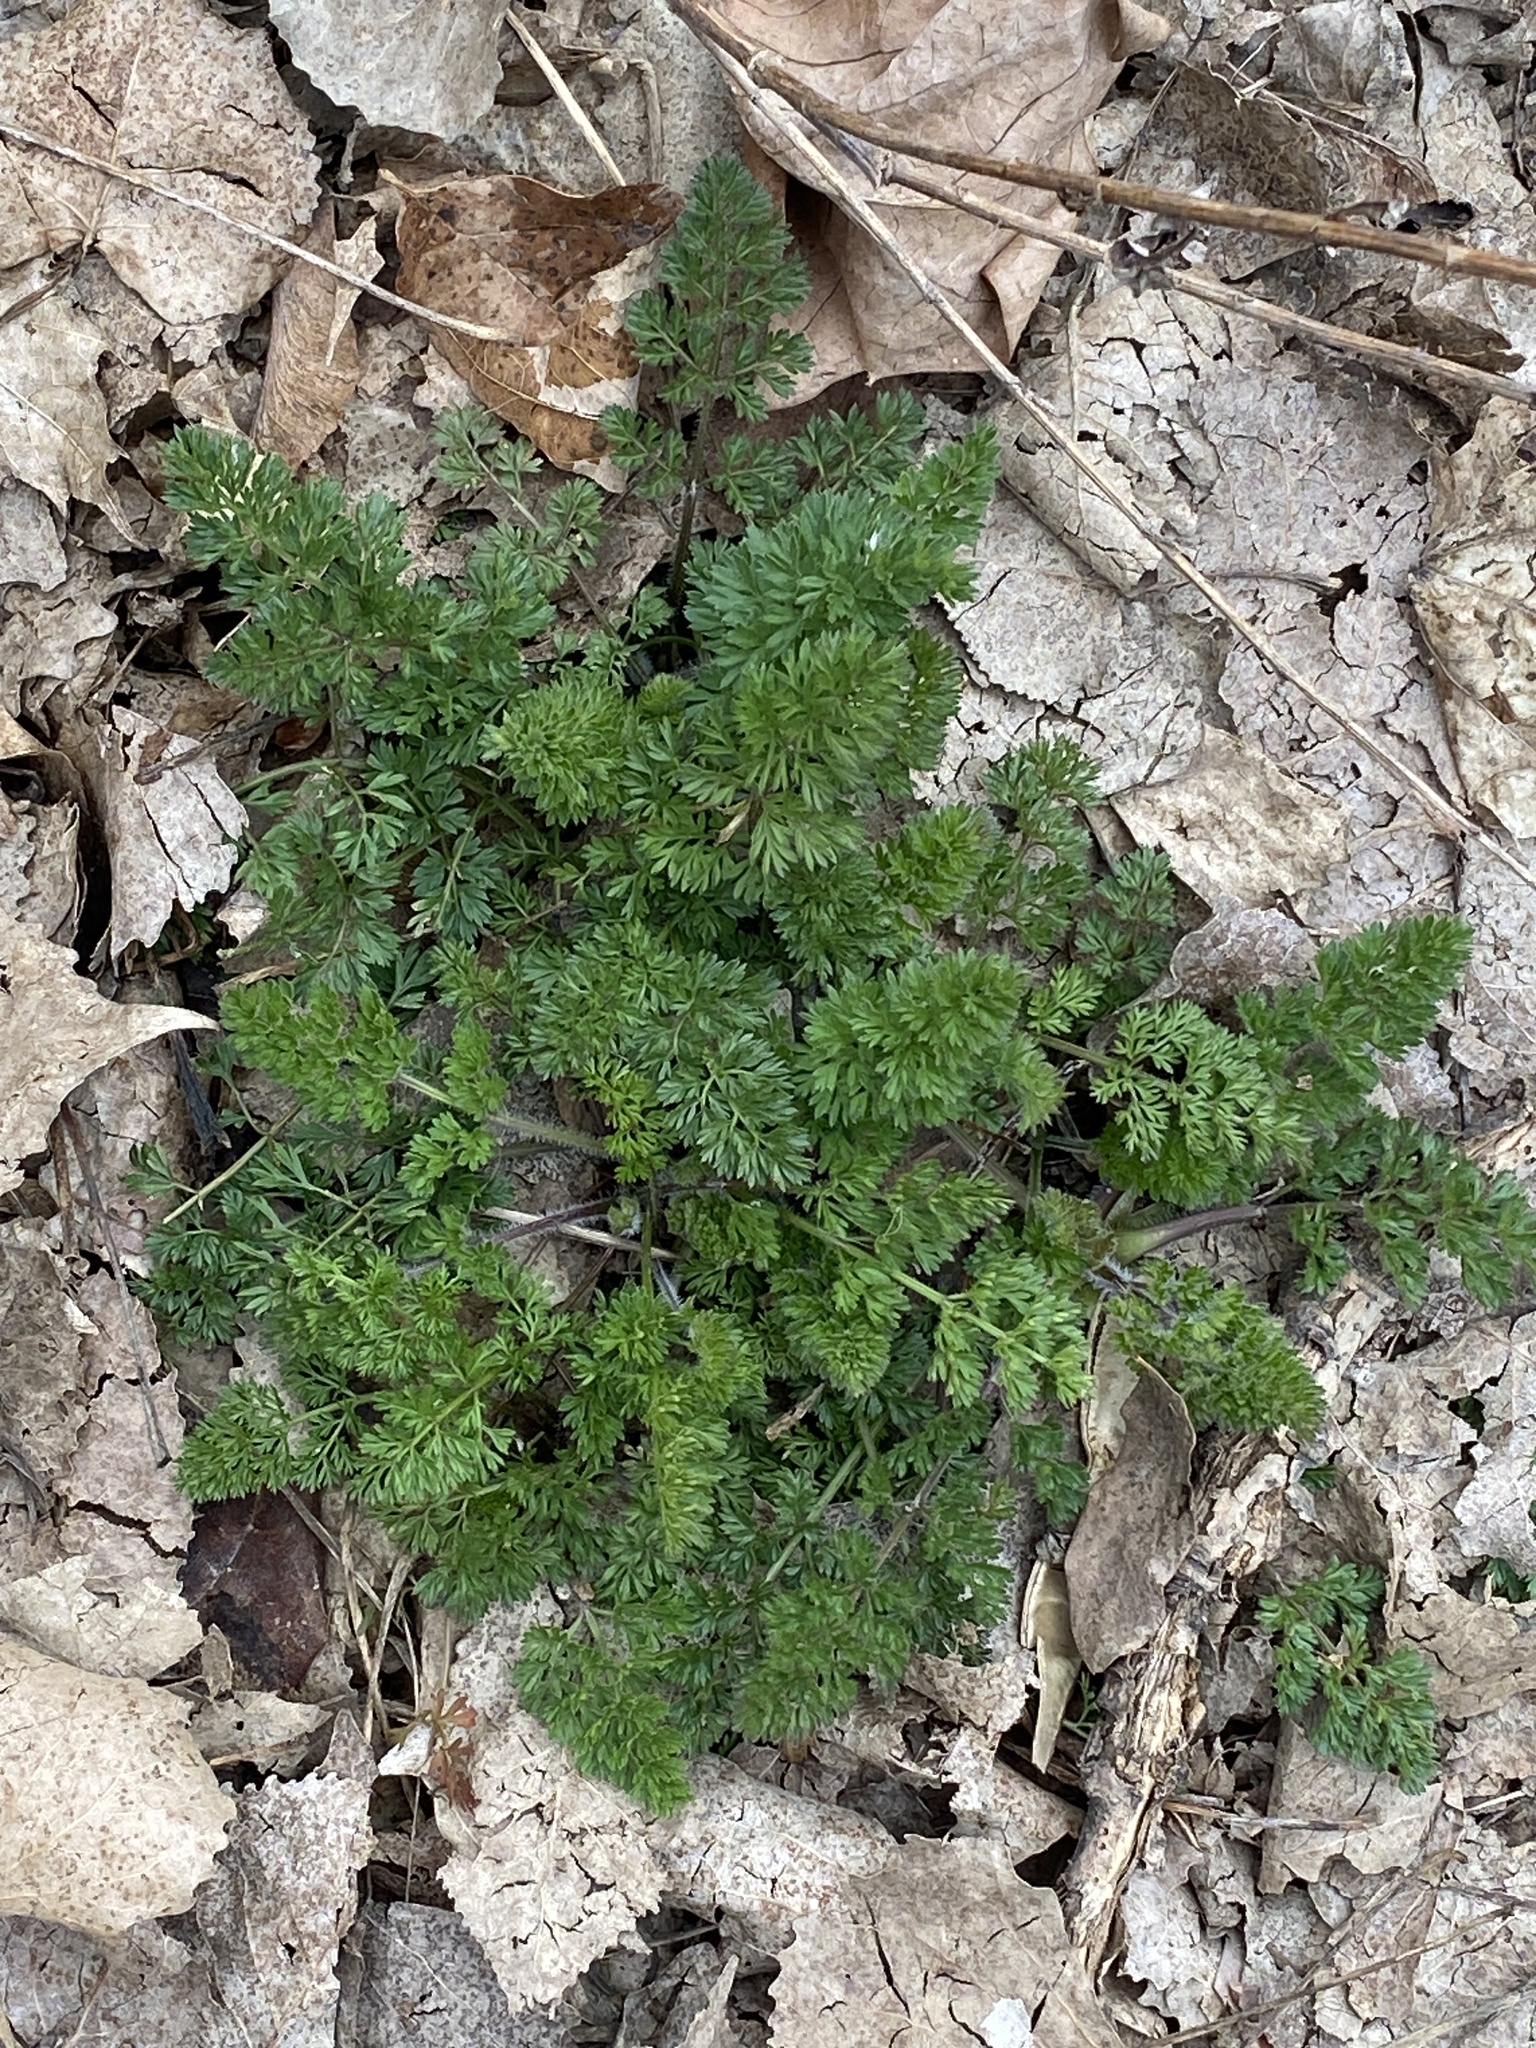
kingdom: Plantae
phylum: Tracheophyta
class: Magnoliopsida
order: Apiales
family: Apiaceae
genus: Daucus
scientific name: Daucus carota
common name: Wild carrot
